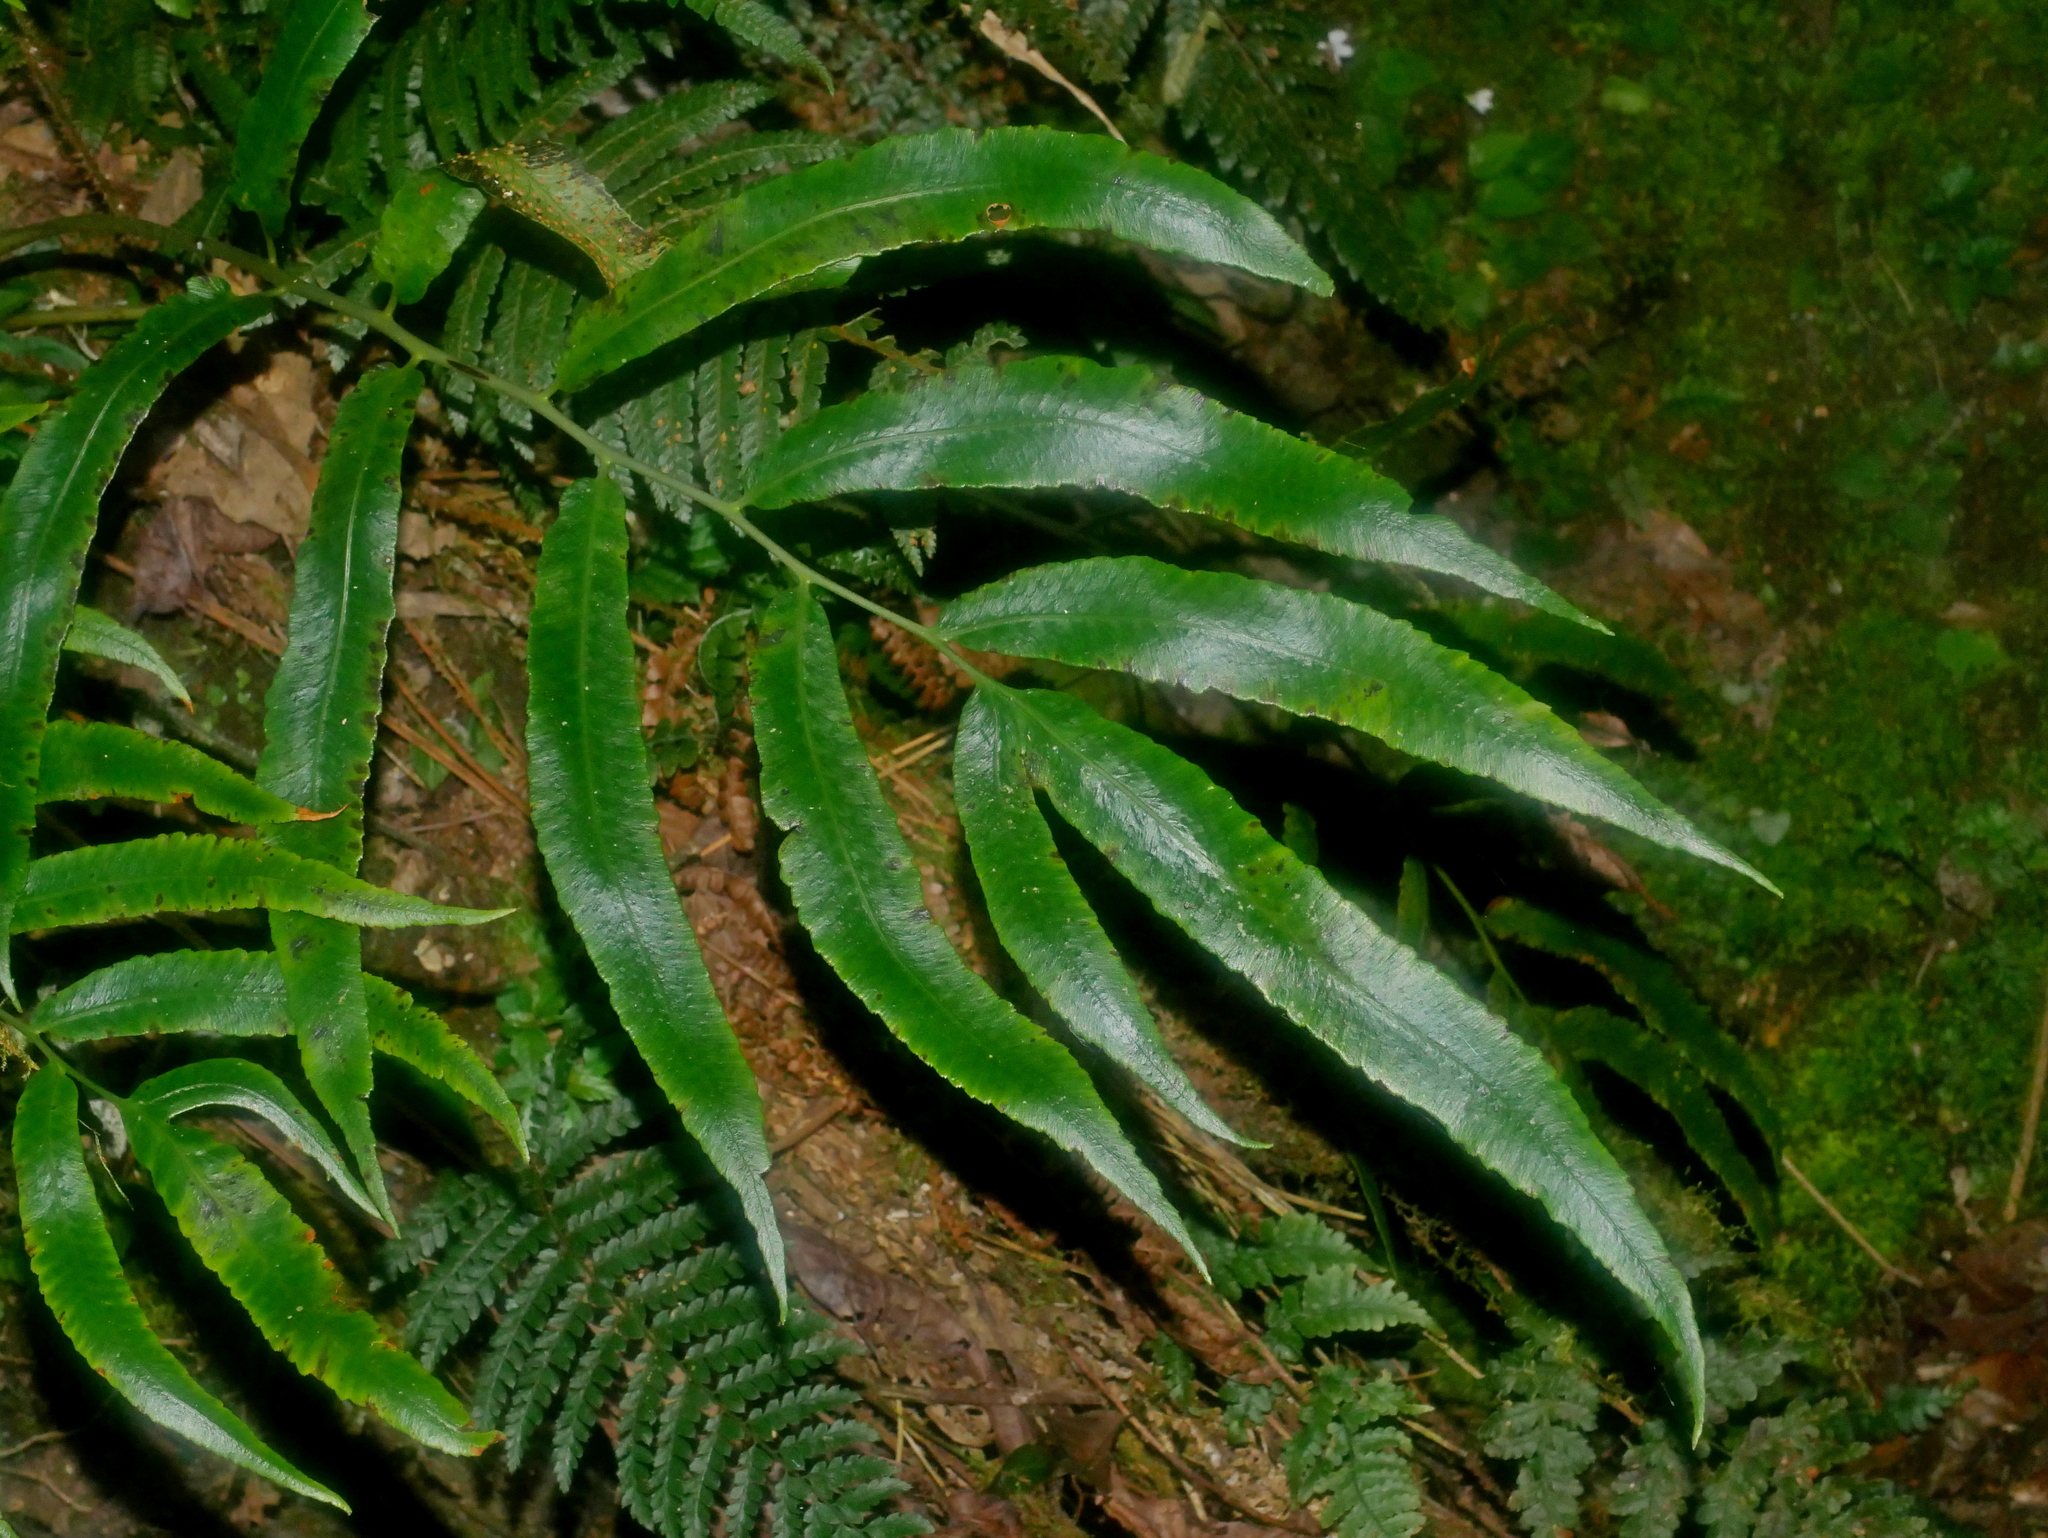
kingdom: Plantae
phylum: Tracheophyta
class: Polypodiopsida
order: Polypodiales
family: Dryopteridaceae
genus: Dryopteris
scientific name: Dryopteris enneaphylla
